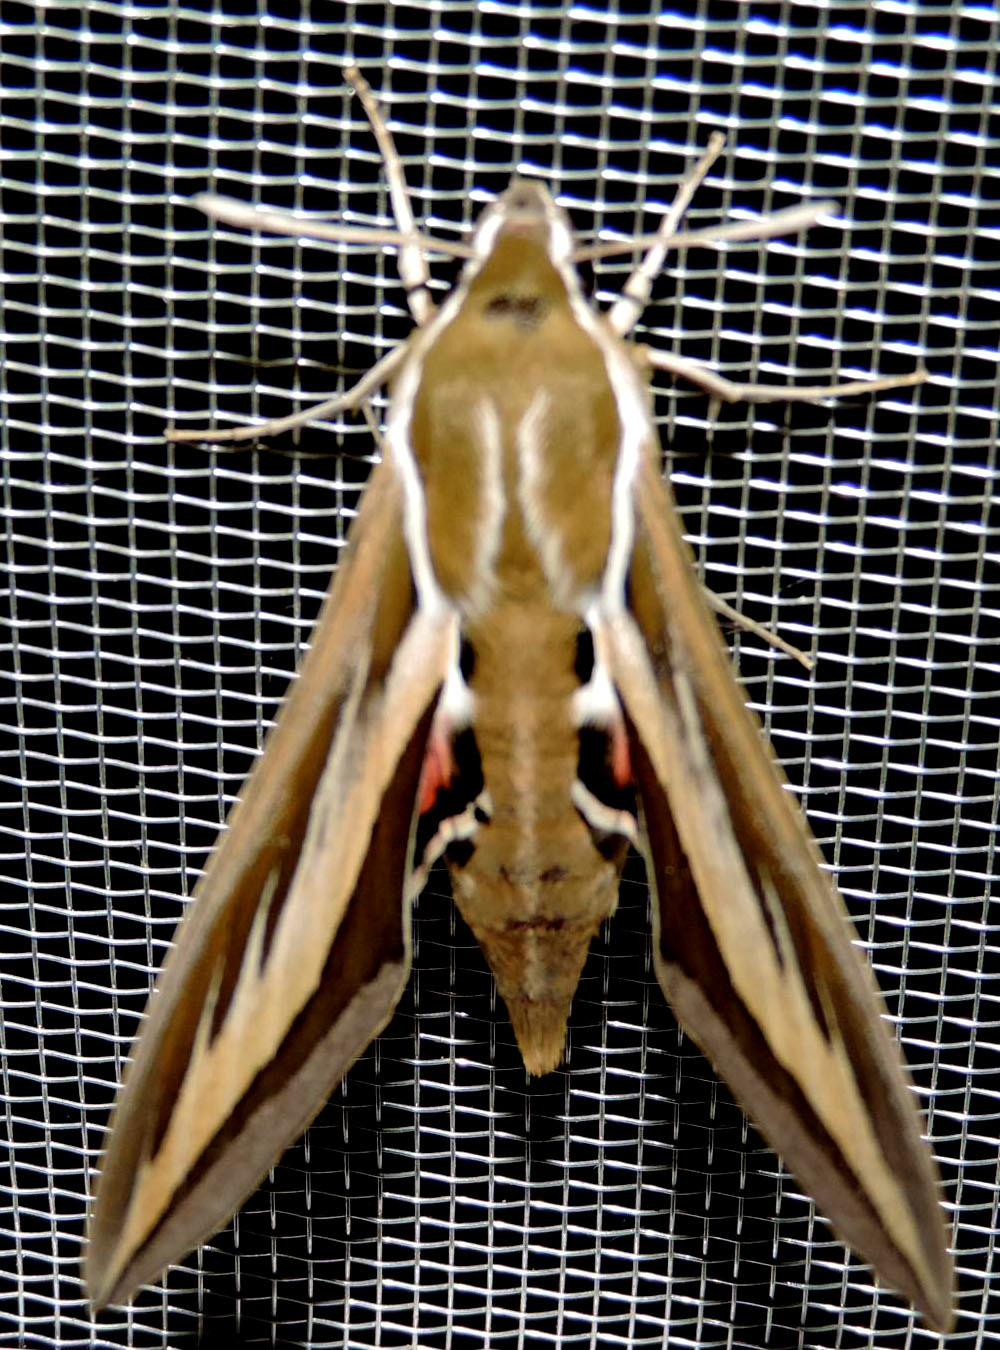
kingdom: Animalia
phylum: Arthropoda
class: Insecta
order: Lepidoptera
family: Sphingidae
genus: Hyles
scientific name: Hyles euphorbiarum
